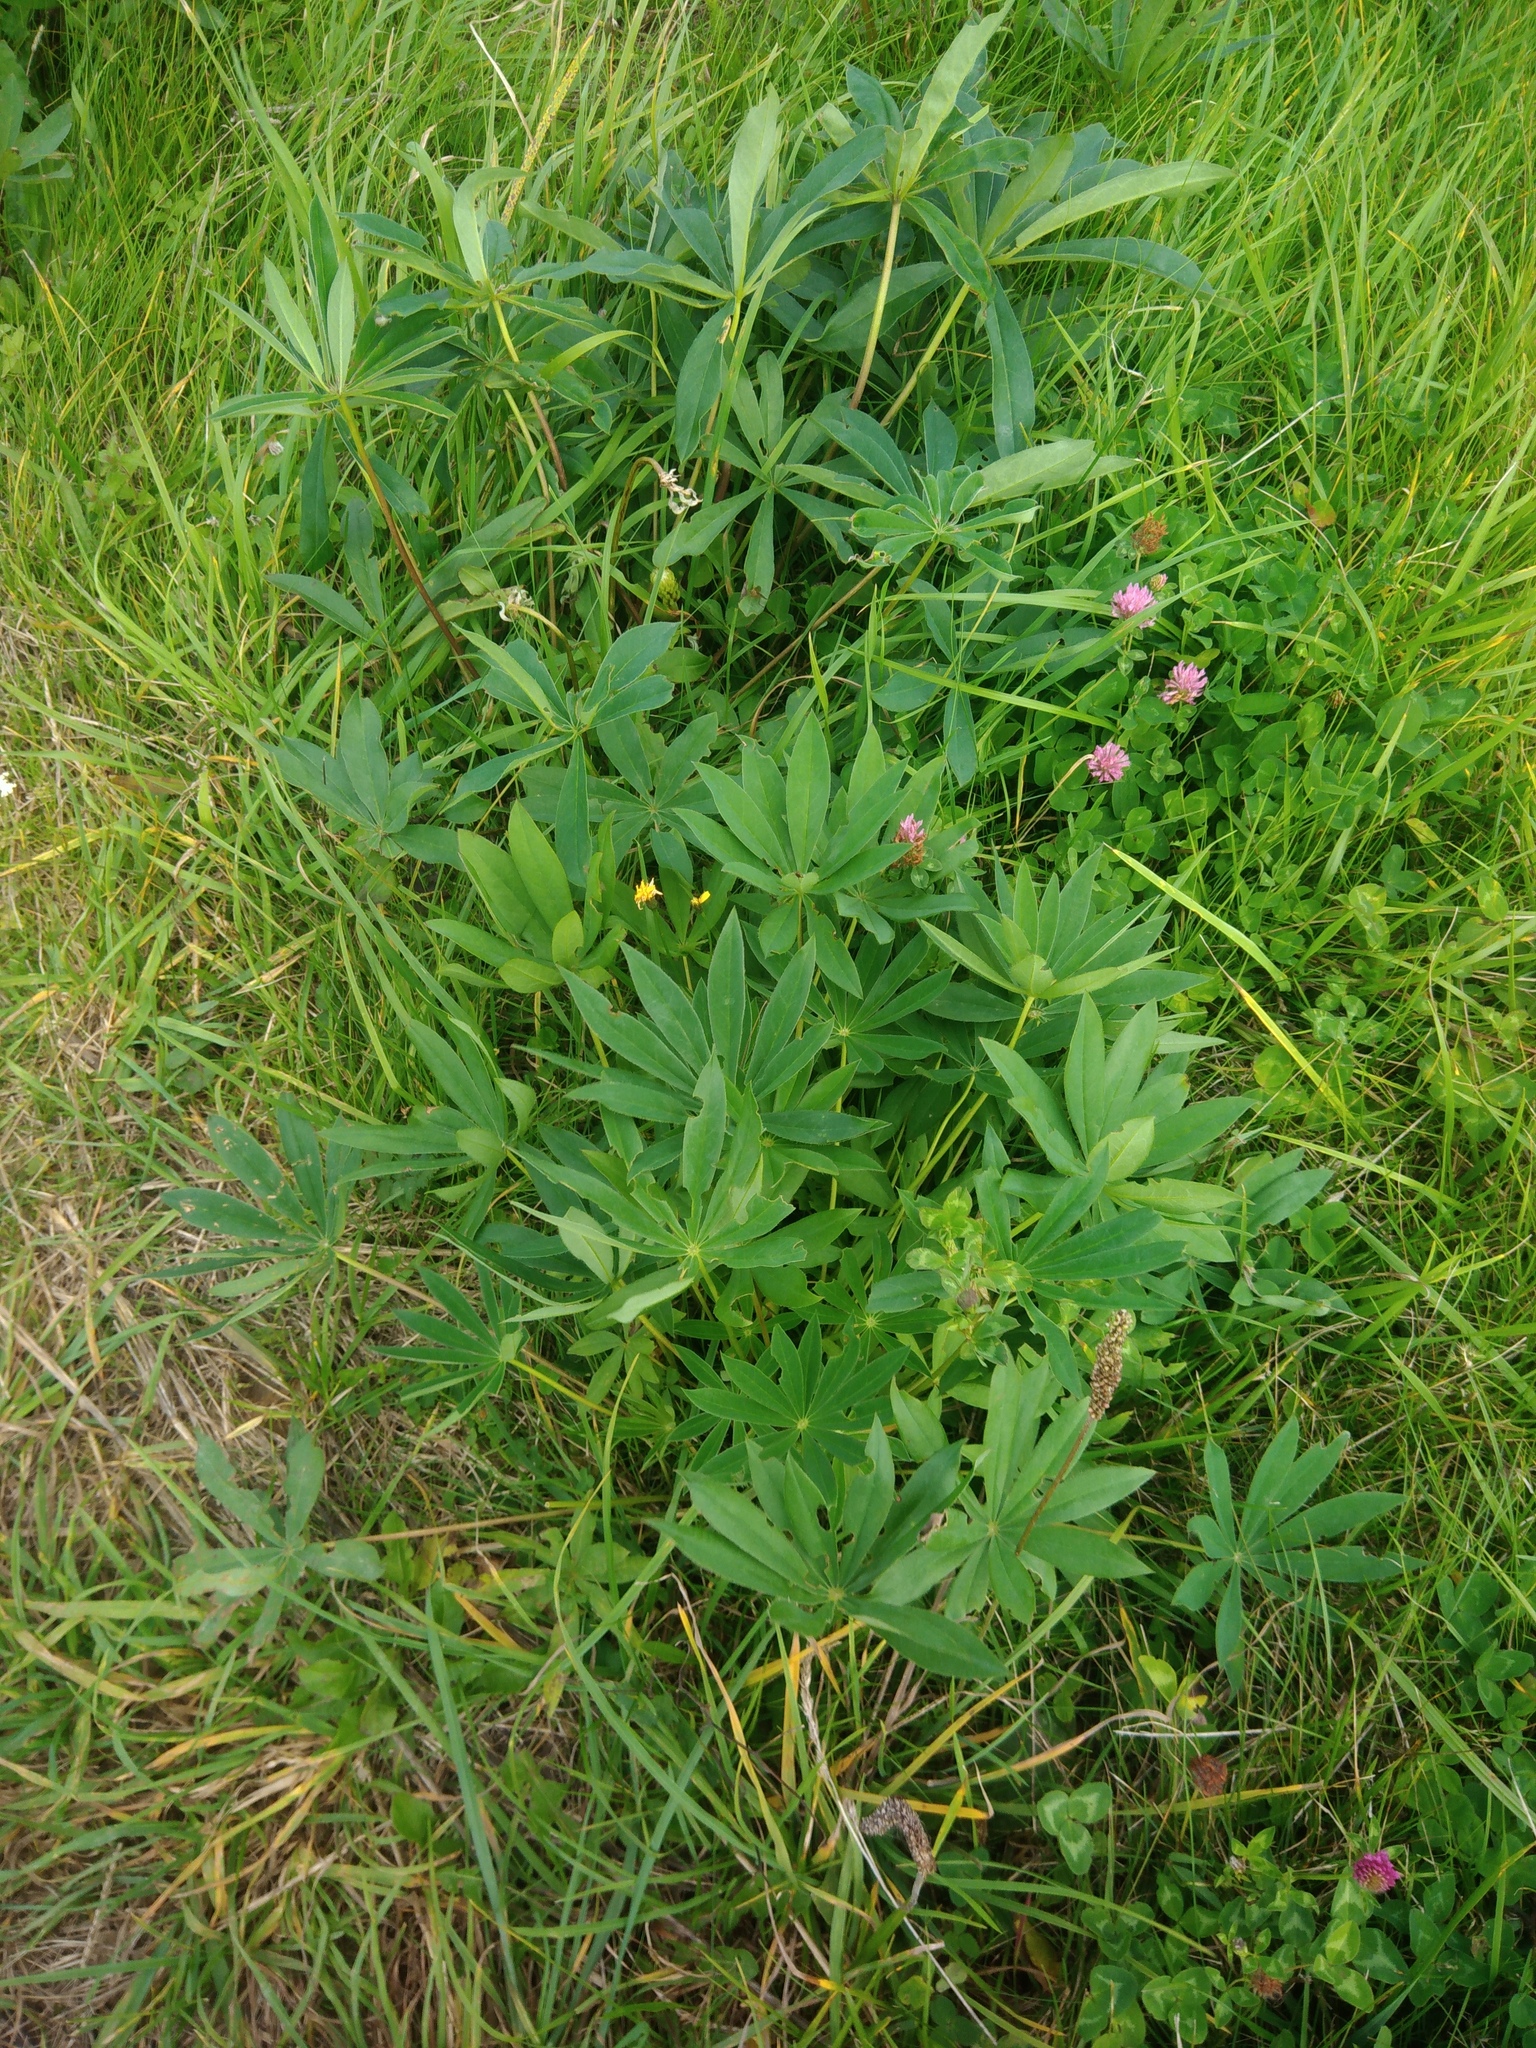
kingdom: Plantae
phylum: Tracheophyta
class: Magnoliopsida
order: Fabales
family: Fabaceae
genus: Lupinus
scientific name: Lupinus polyphyllus
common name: Garden lupin
